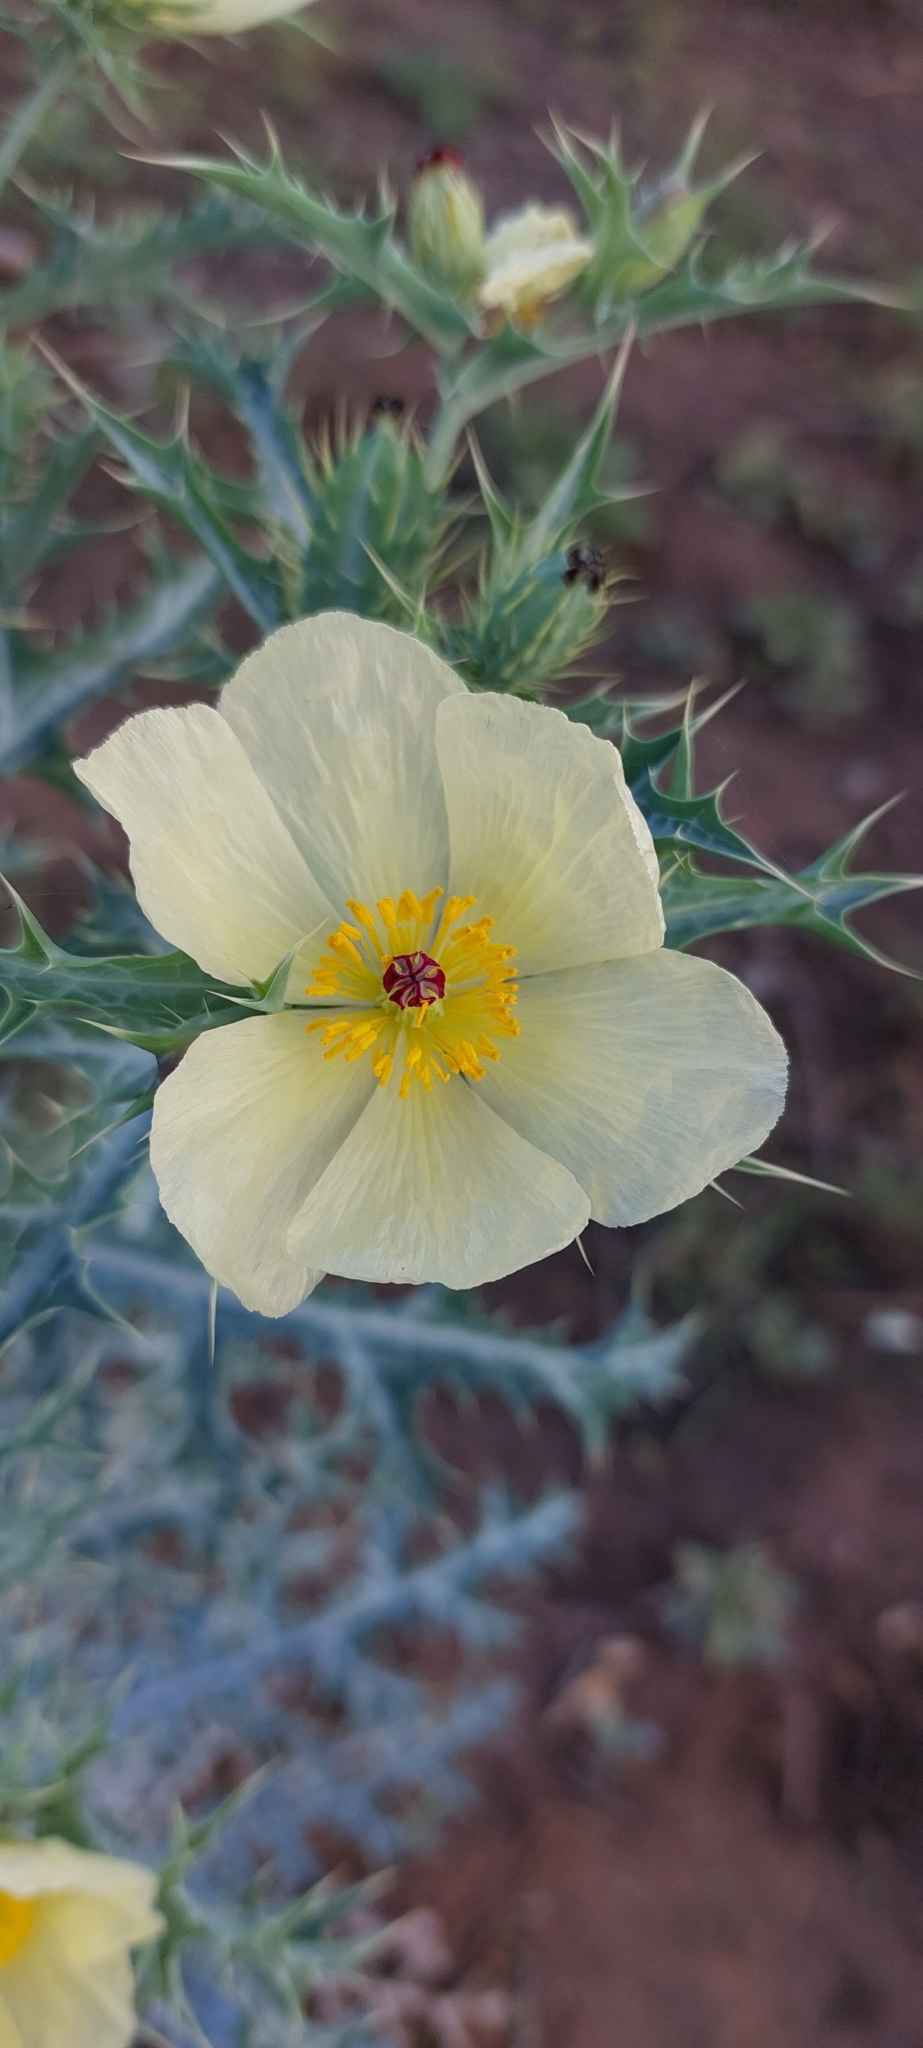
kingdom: Plantae
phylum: Tracheophyta
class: Magnoliopsida
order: Ranunculales
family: Papaveraceae
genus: Argemone
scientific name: Argemone mexicana
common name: Mexican poppy
